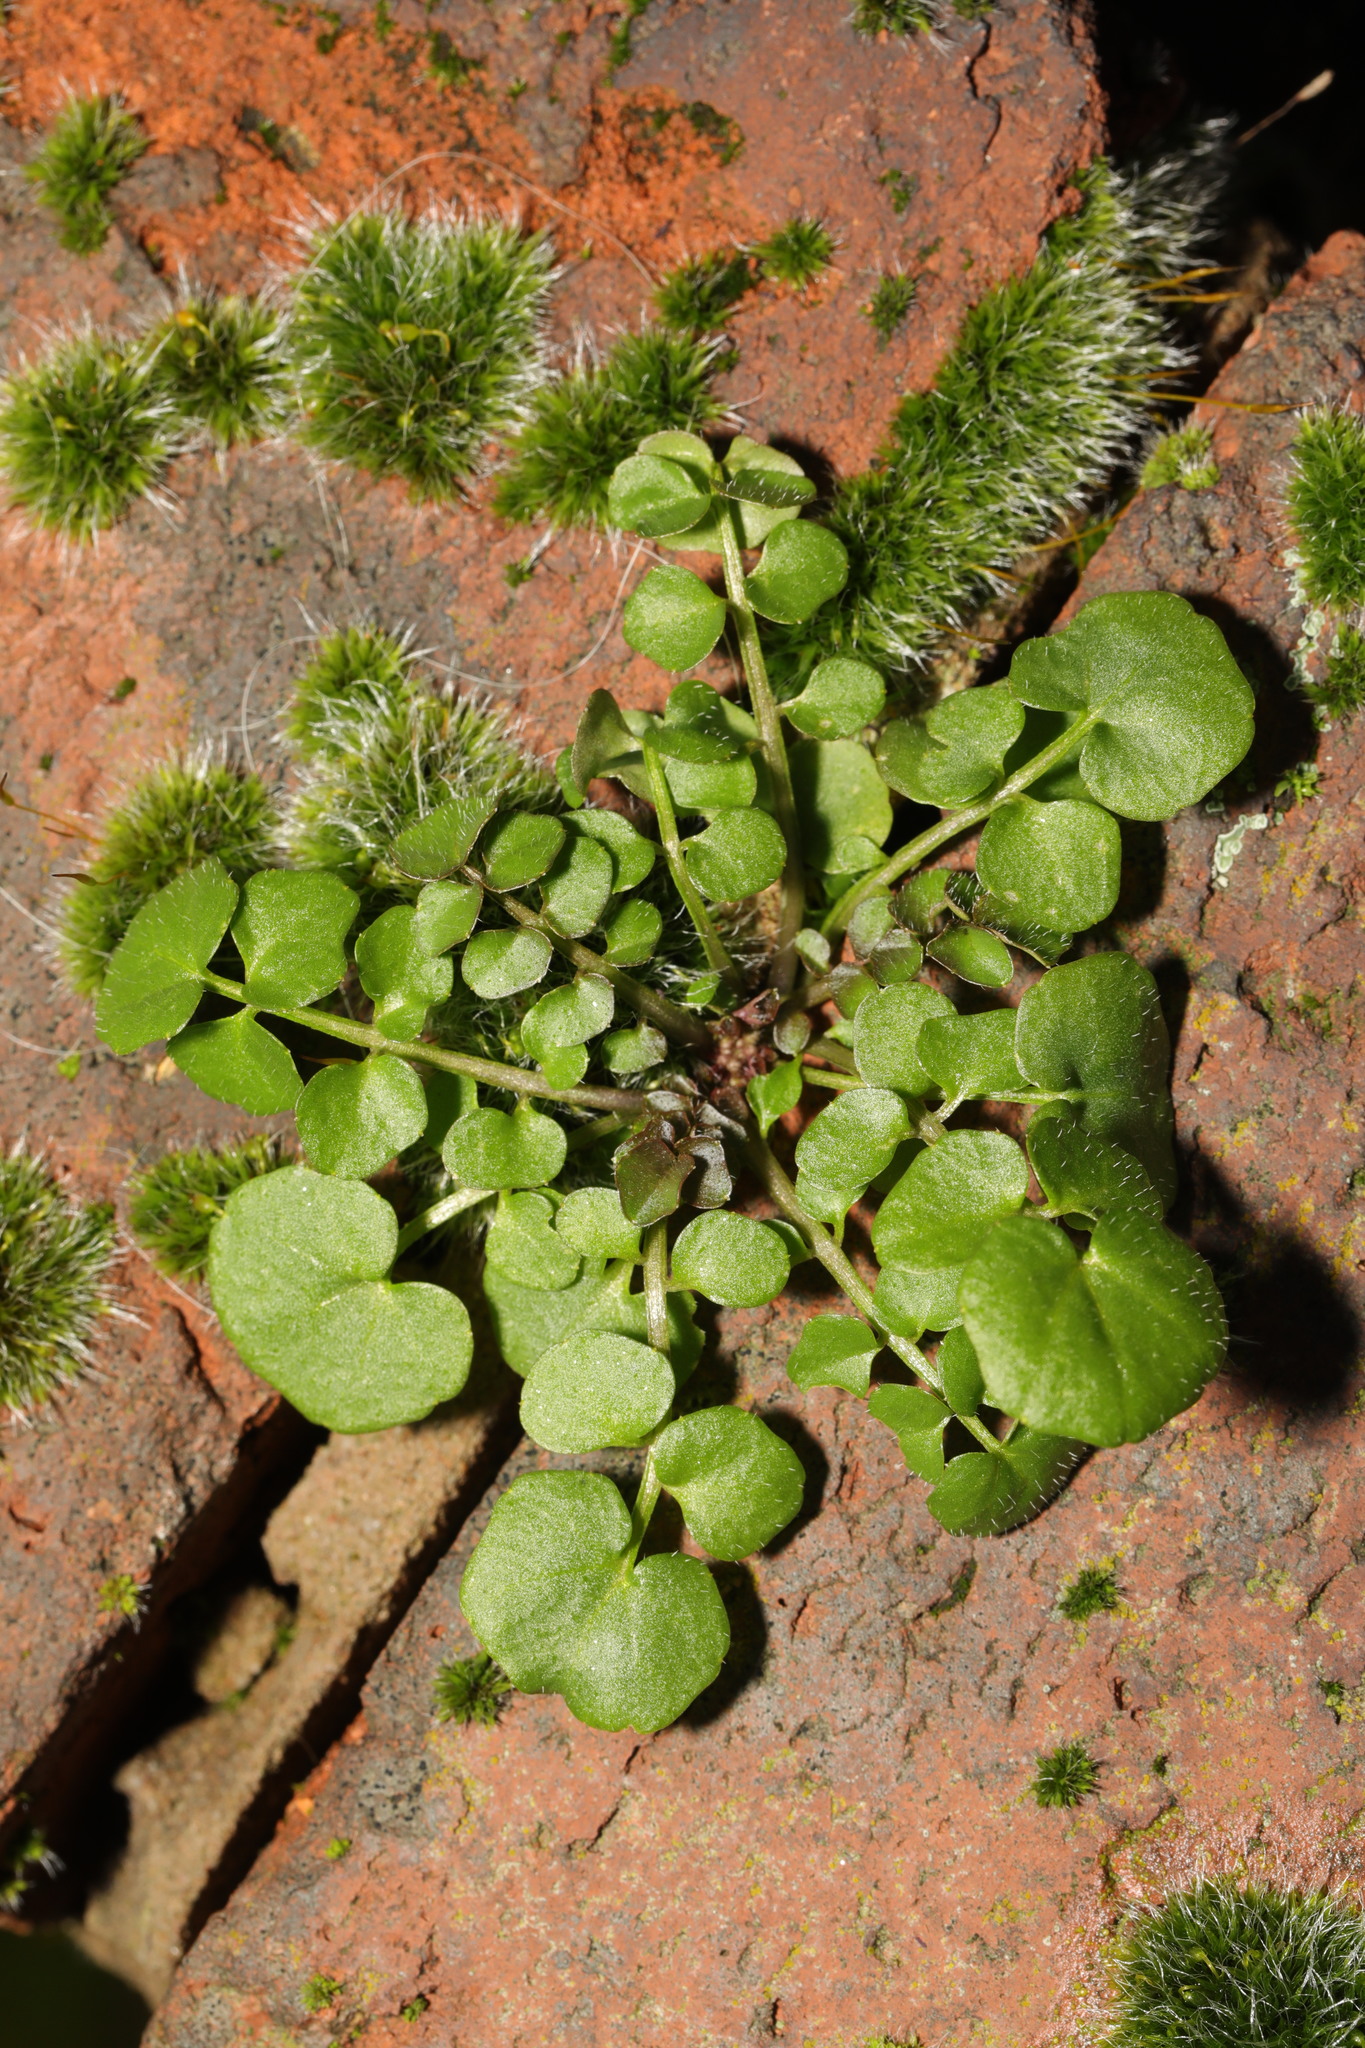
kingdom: Plantae
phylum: Tracheophyta
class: Magnoliopsida
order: Brassicales
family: Brassicaceae
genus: Cardamine
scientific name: Cardamine hirsuta
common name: Hairy bittercress
